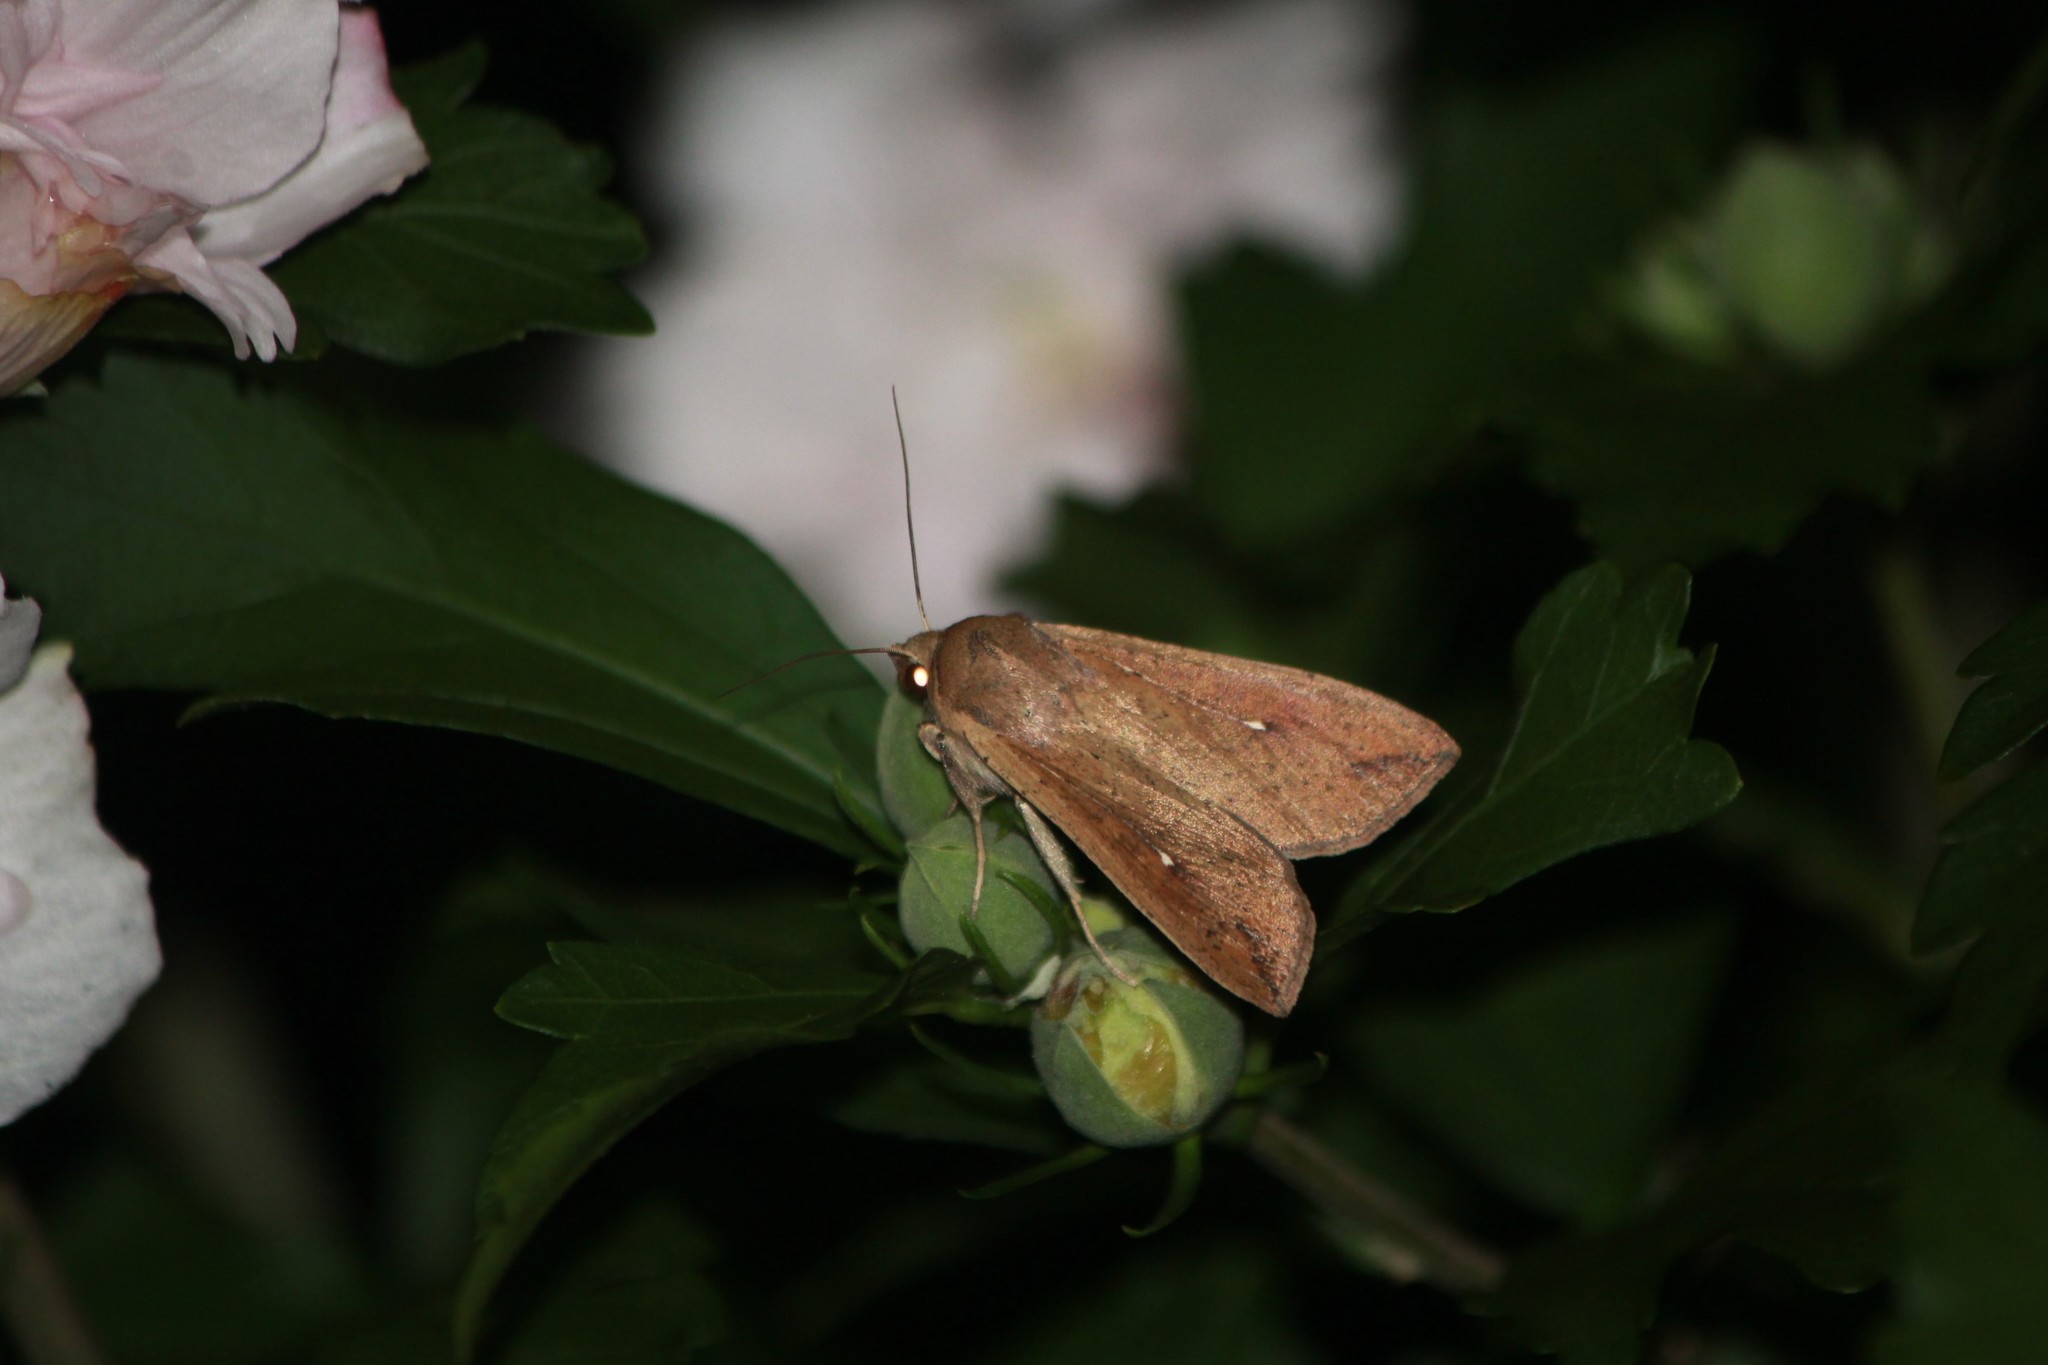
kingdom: Animalia
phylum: Arthropoda
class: Insecta
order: Lepidoptera
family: Noctuidae
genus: Mythimna
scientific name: Mythimna unipuncta
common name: White-speck
